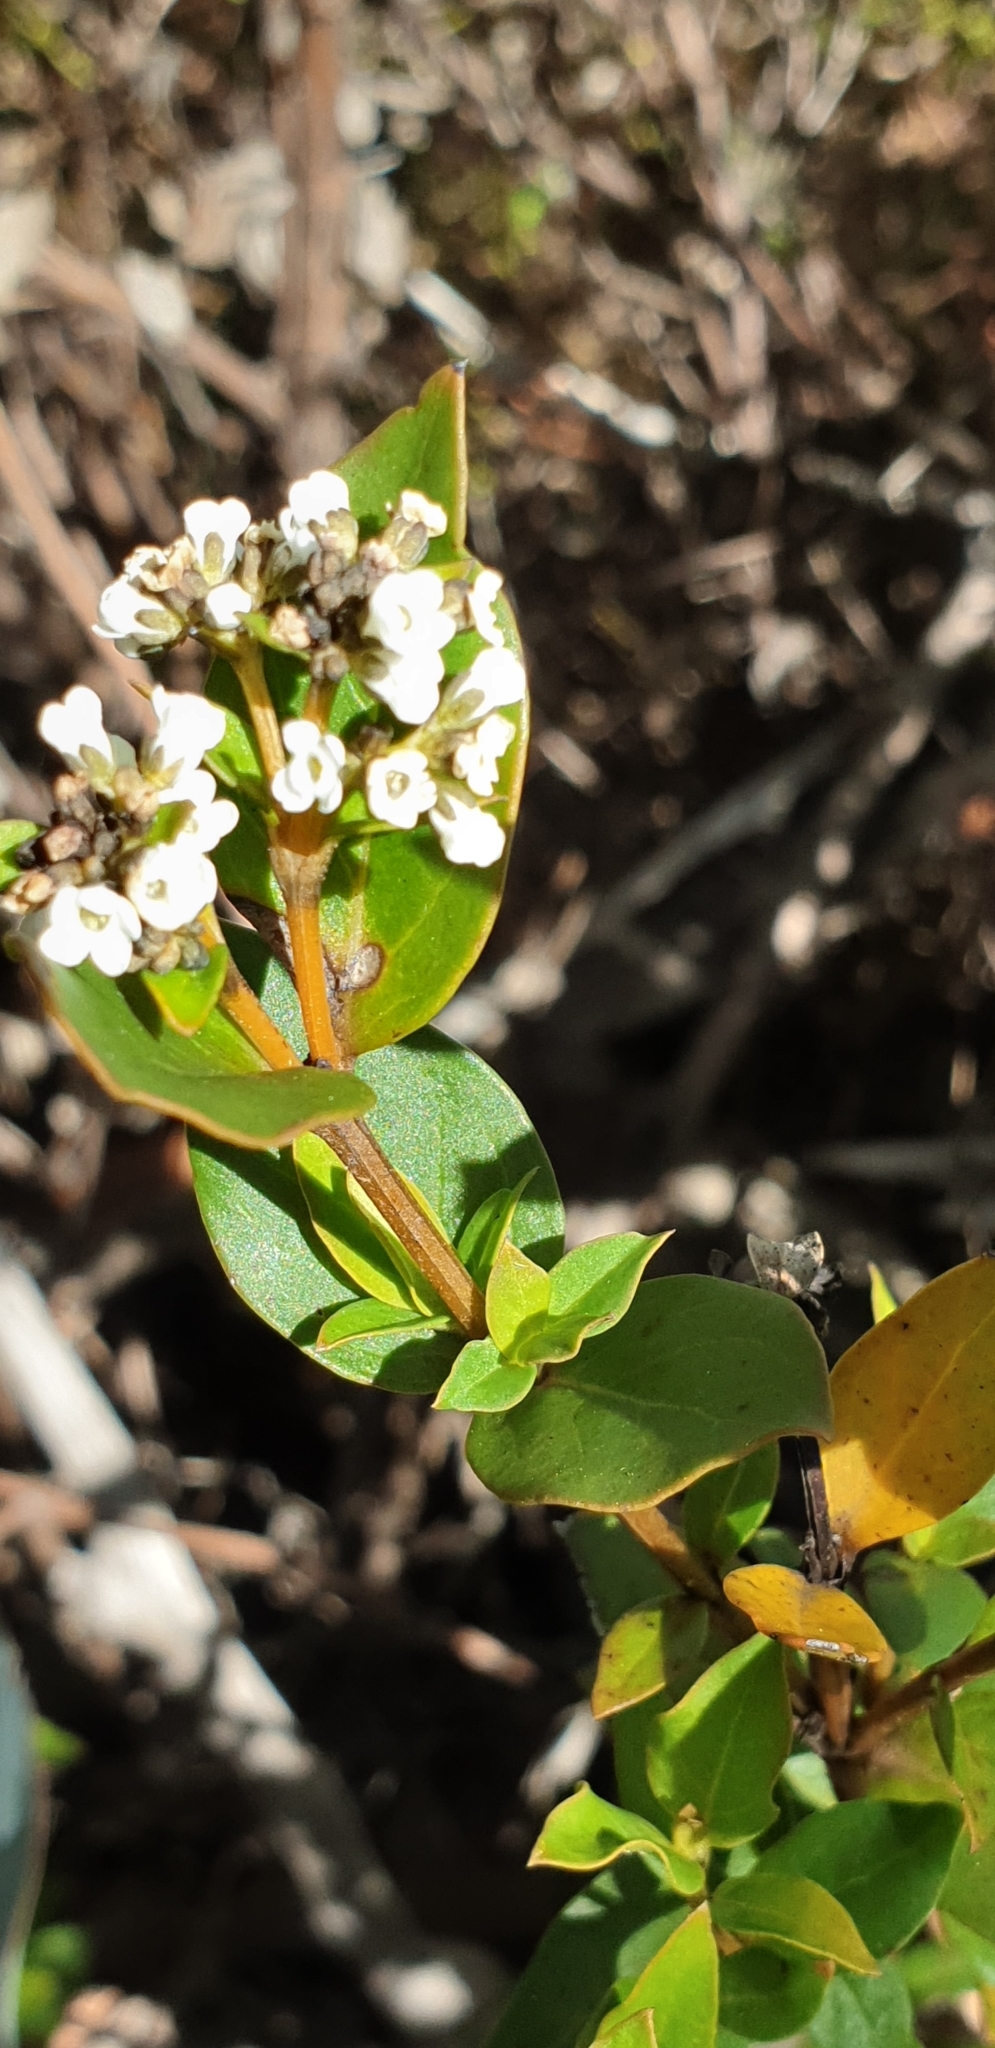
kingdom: Plantae
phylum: Tracheophyta
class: Magnoliopsida
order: Gentianales
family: Loganiaceae
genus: Logania
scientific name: Logania ovata
